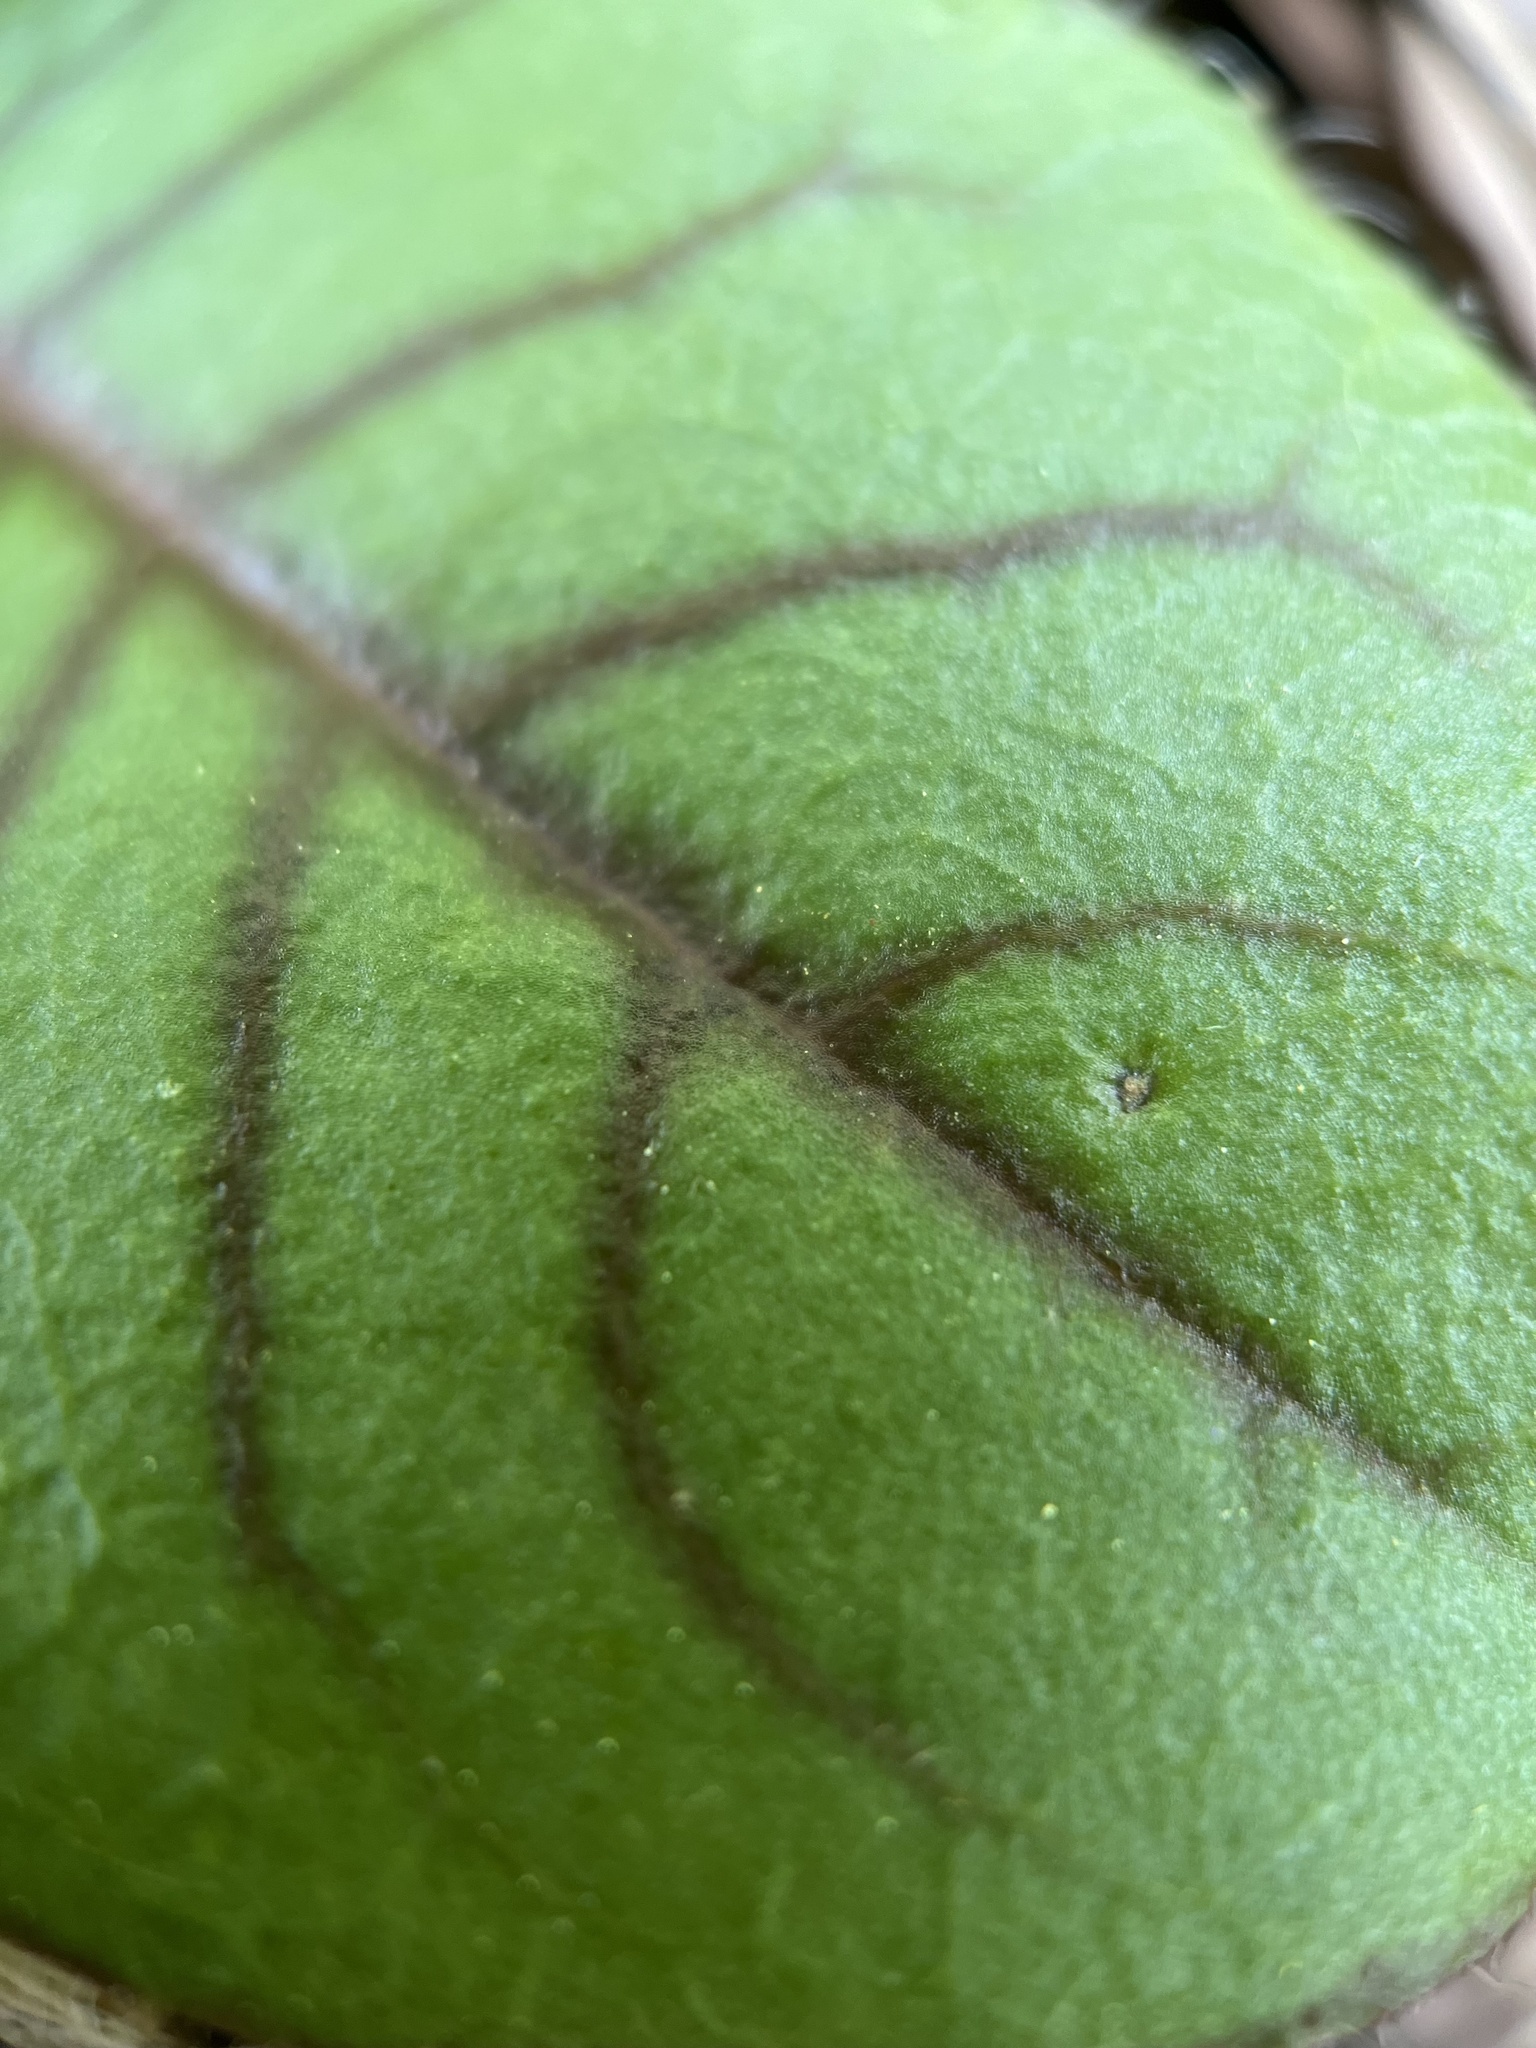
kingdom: Plantae
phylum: Tracheophyta
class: Magnoliopsida
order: Asterales
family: Asteraceae
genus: Hieracium
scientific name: Hieracium venosum
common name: Rattlesnake hawkweed
